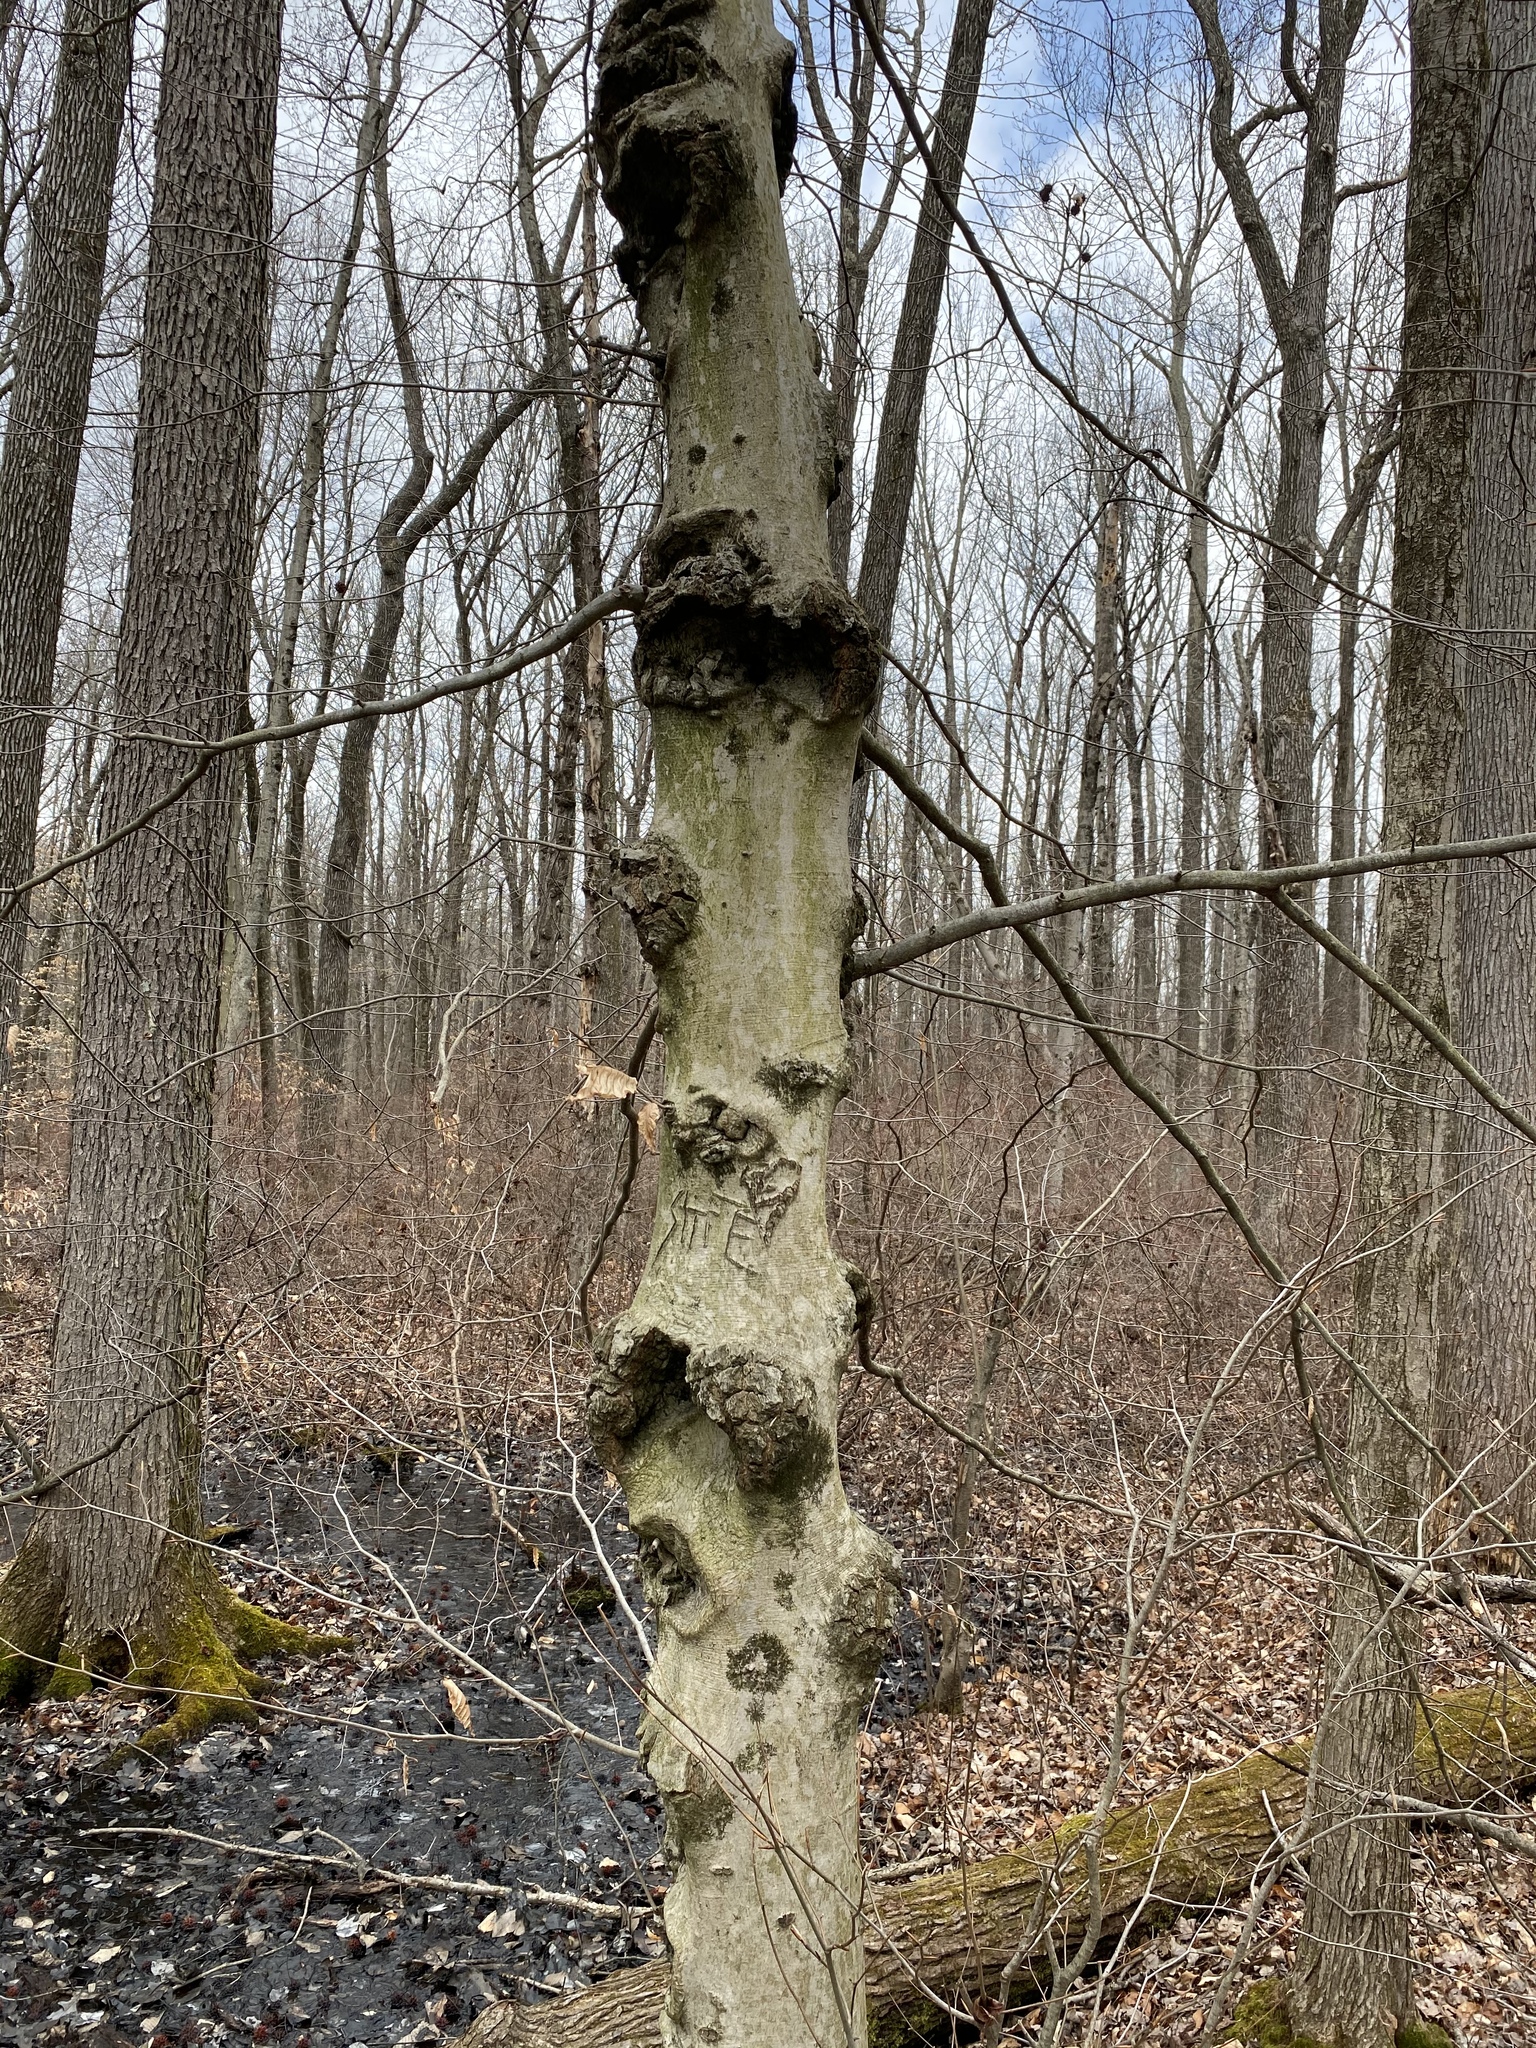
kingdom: Plantae
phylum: Tracheophyta
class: Magnoliopsida
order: Fagales
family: Fagaceae
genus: Fagus
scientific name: Fagus grandifolia
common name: American beech
